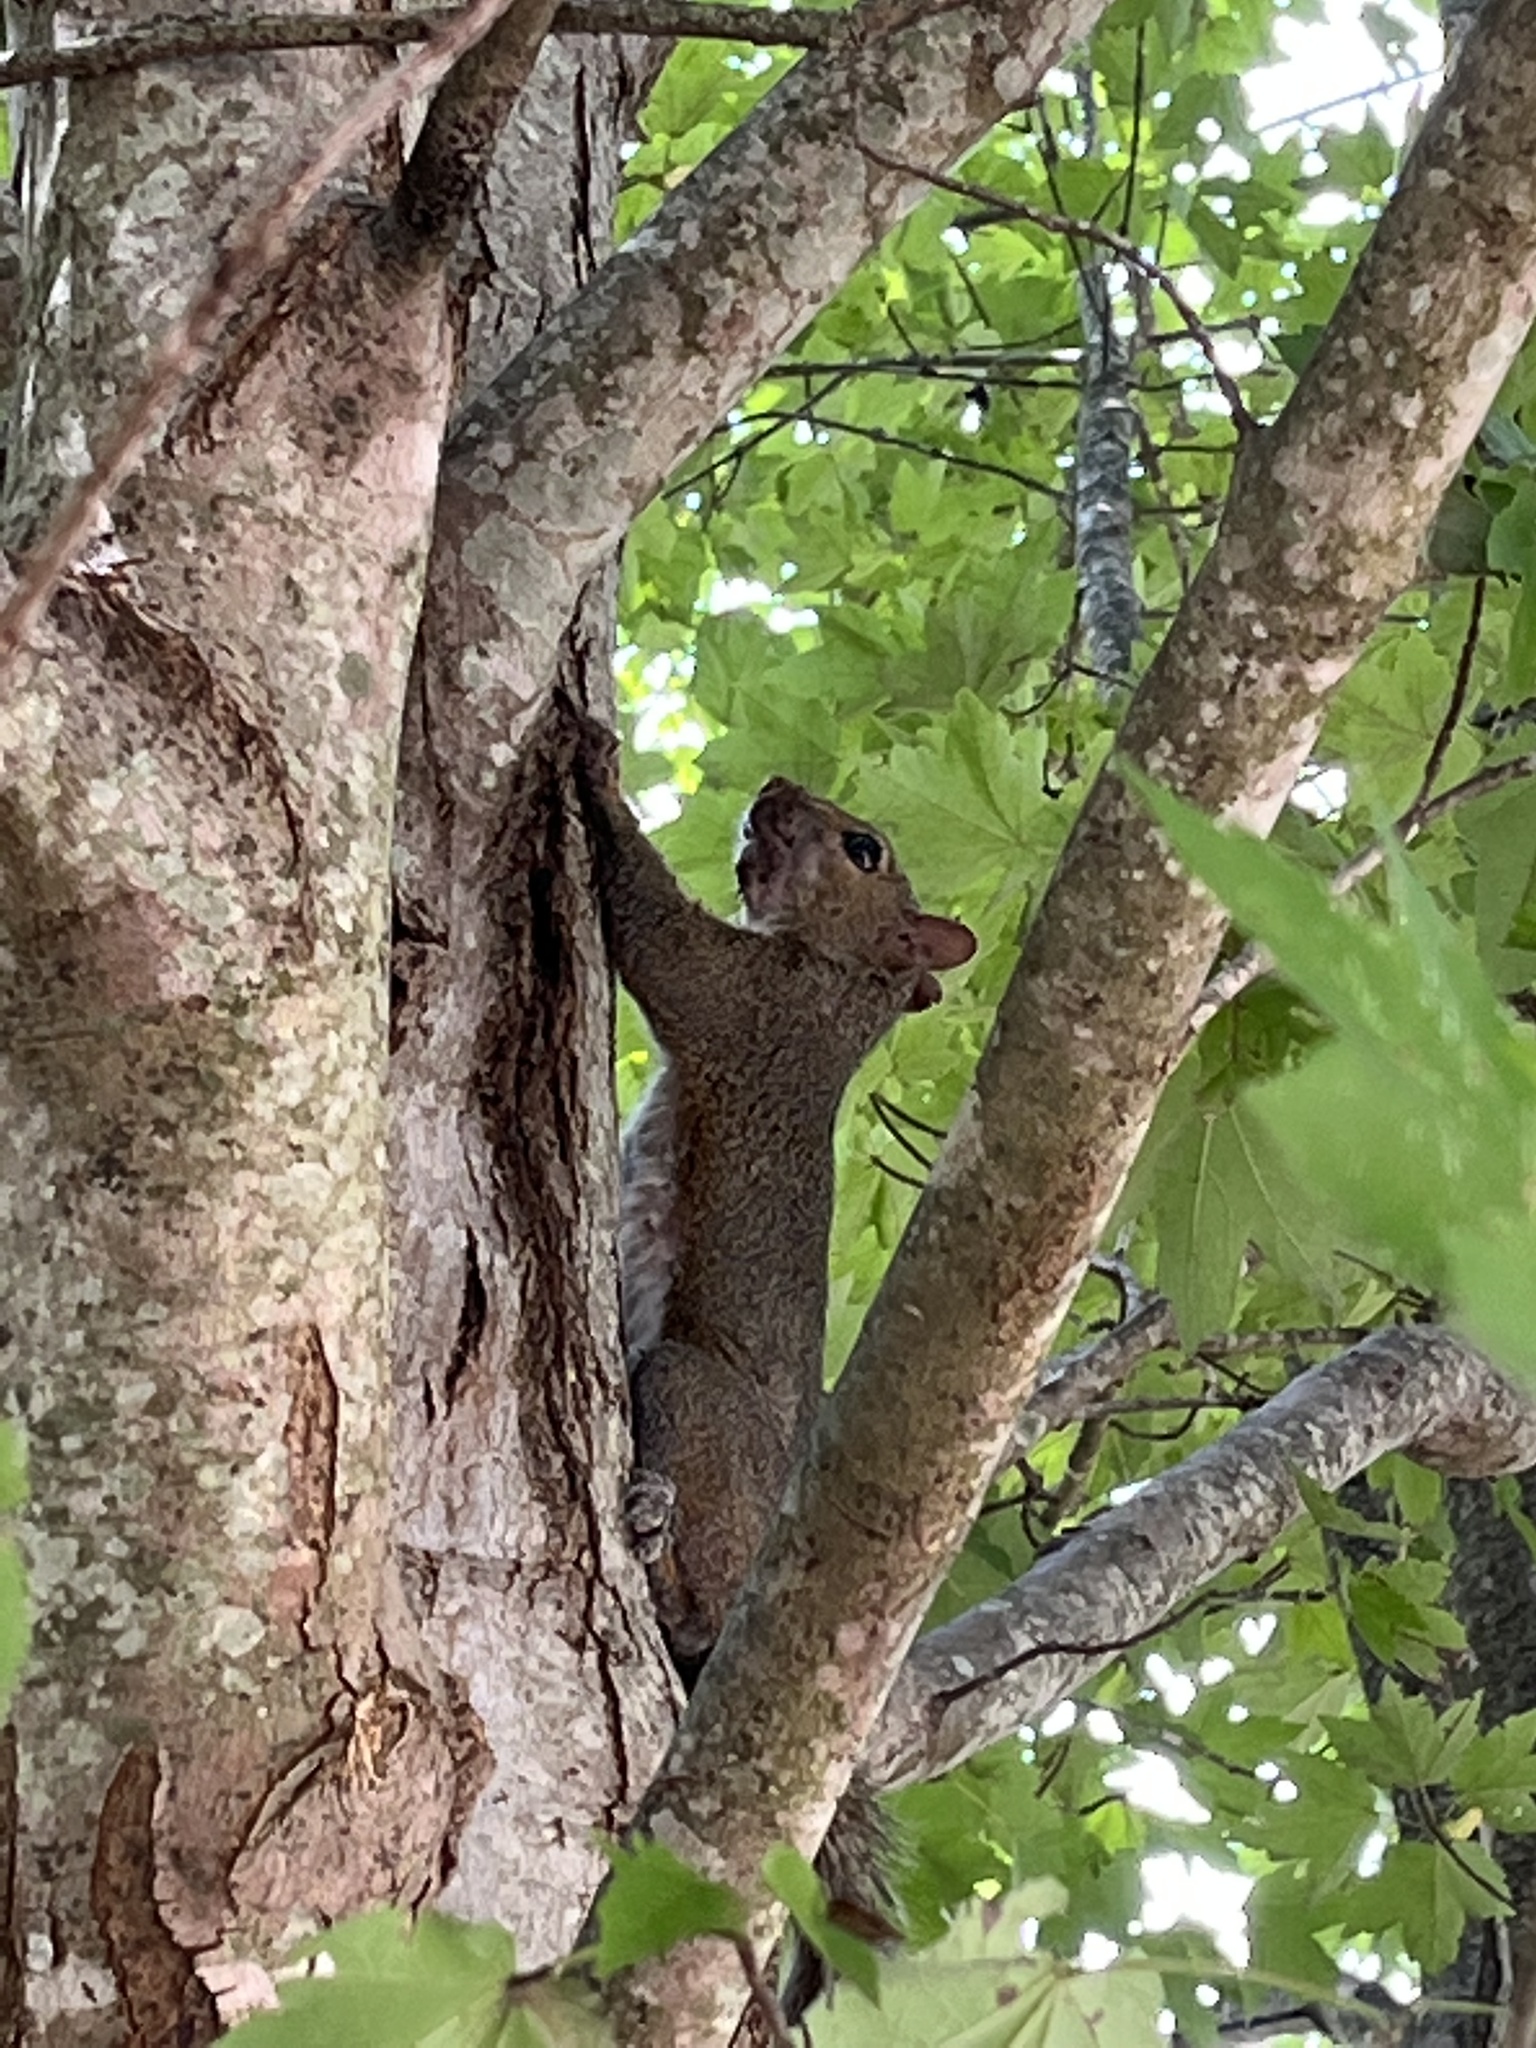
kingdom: Animalia
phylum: Chordata
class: Mammalia
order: Rodentia
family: Sciuridae
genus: Sciurus
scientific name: Sciurus carolinensis
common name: Eastern gray squirrel
